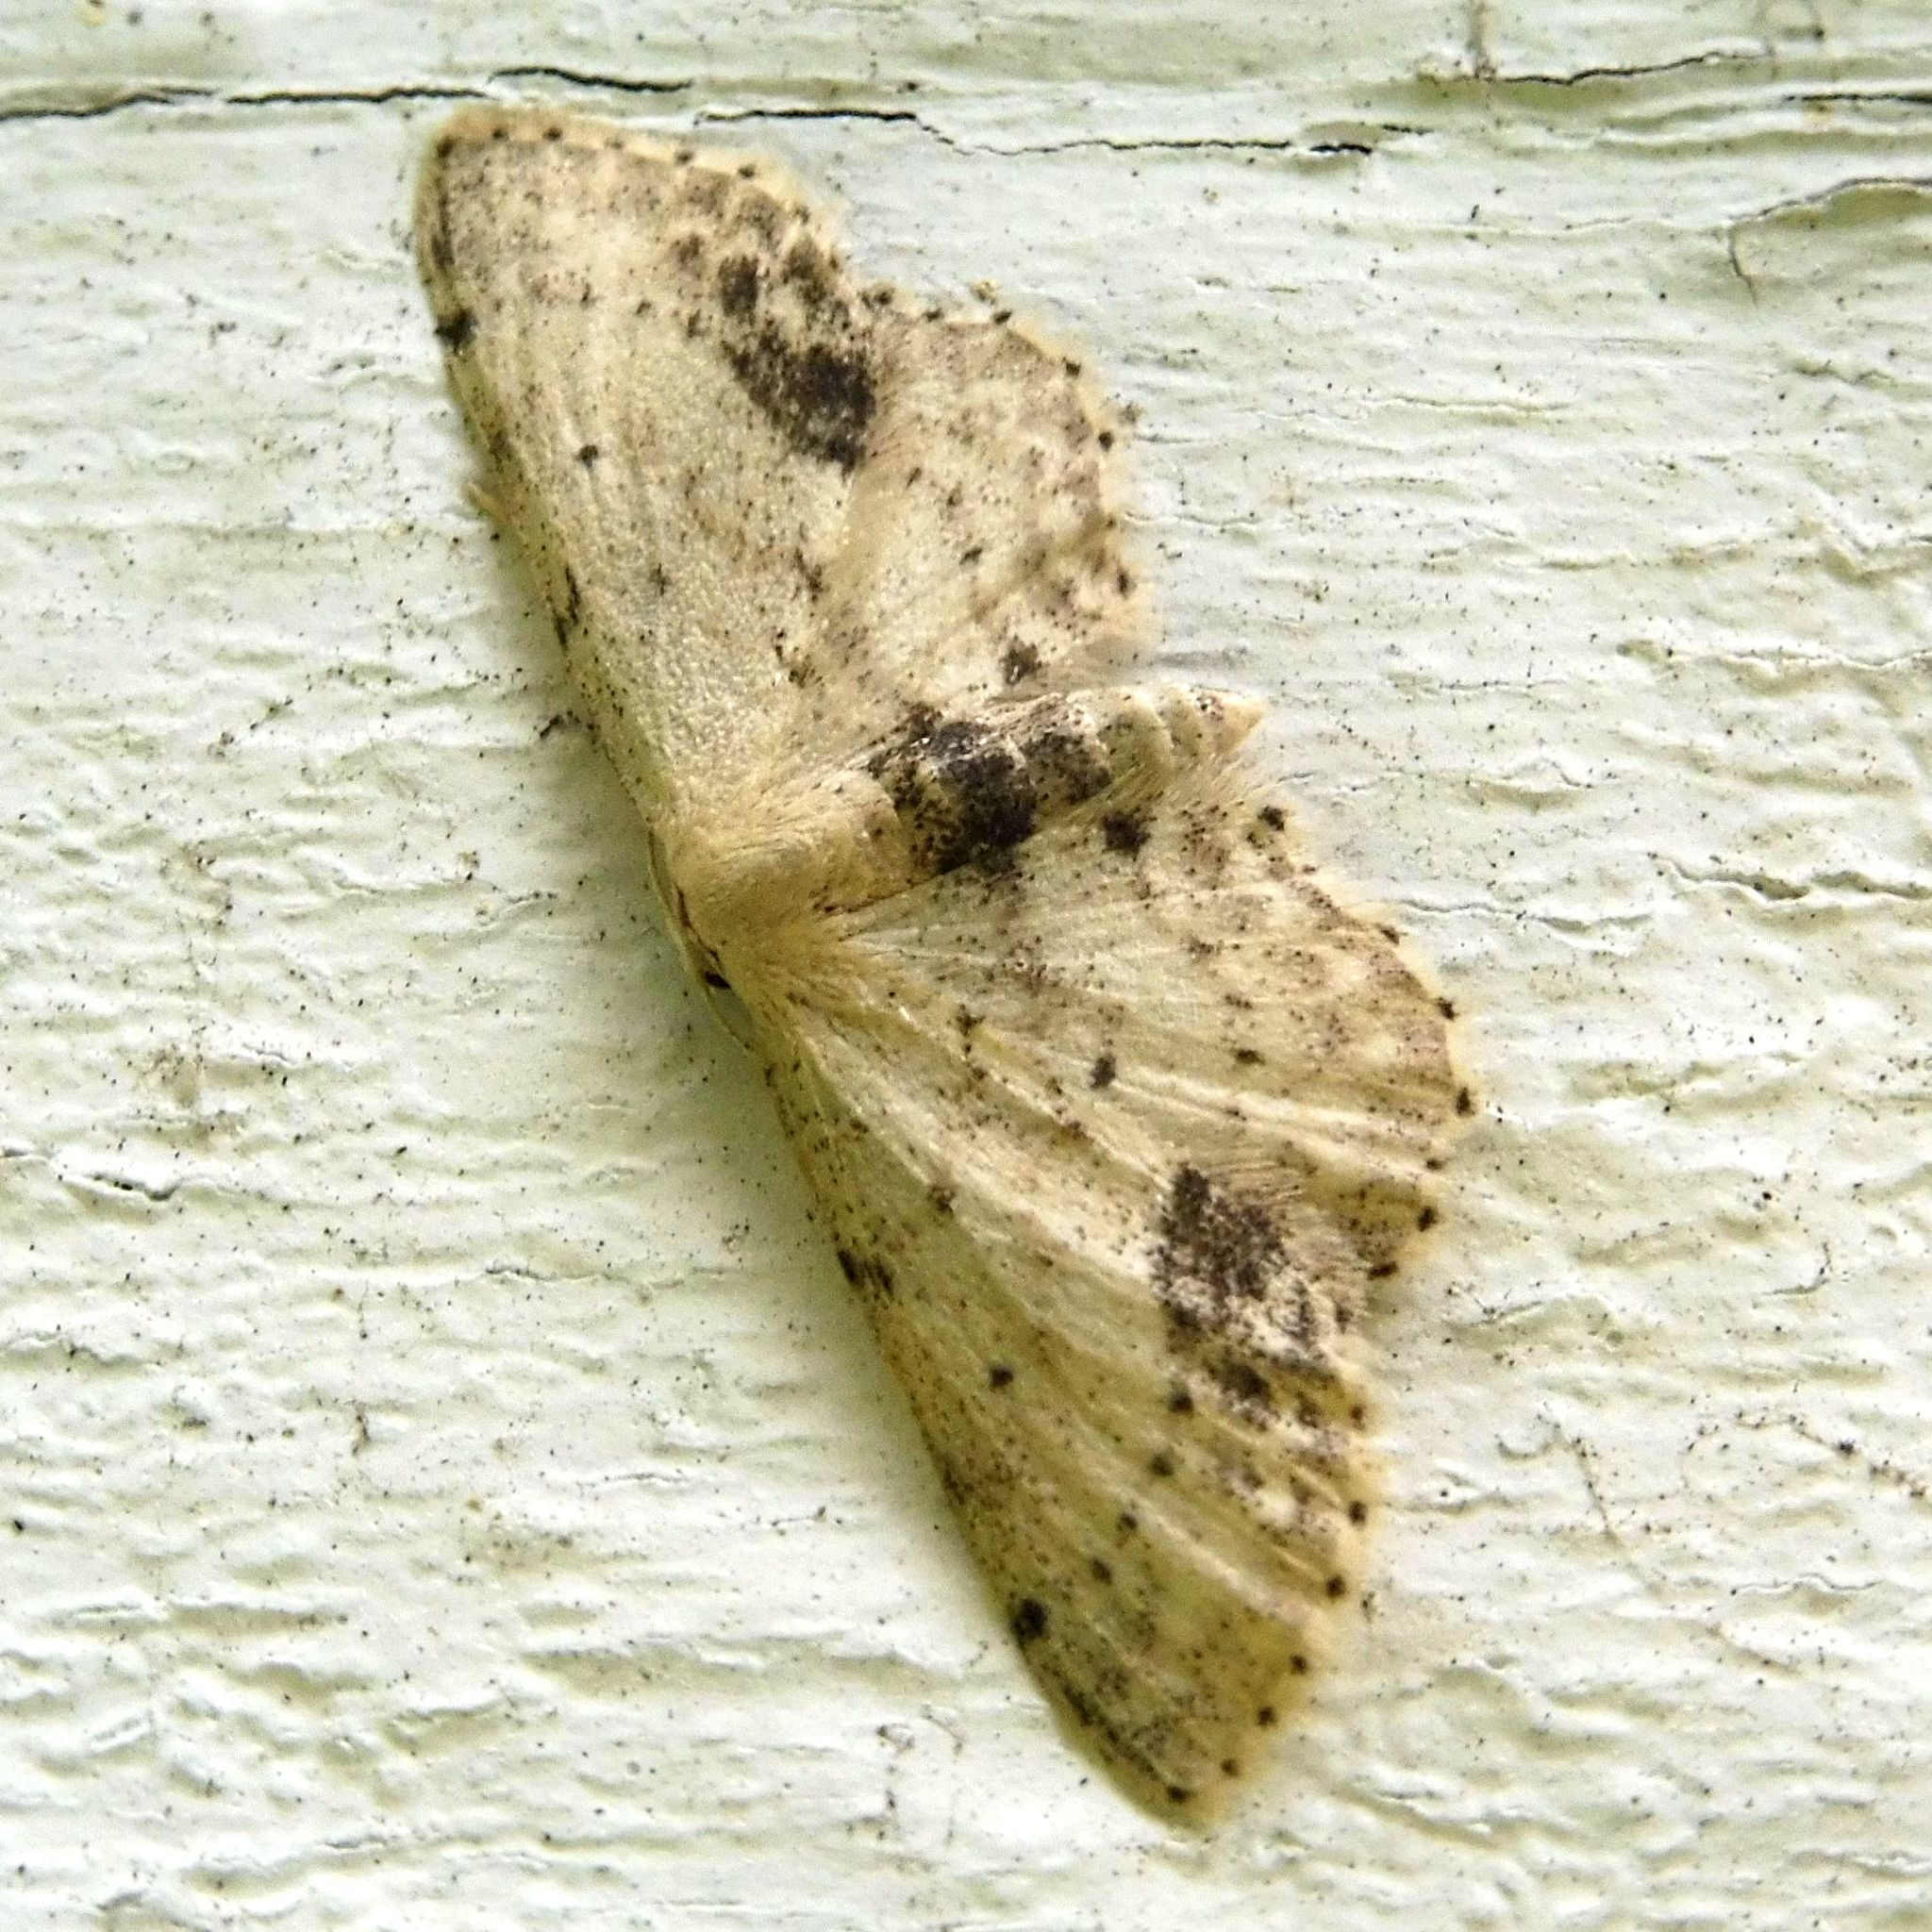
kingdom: Animalia
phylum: Arthropoda
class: Insecta
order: Lepidoptera
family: Geometridae
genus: Idaea
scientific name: Idaea dimidiata
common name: Single-dotted wave
